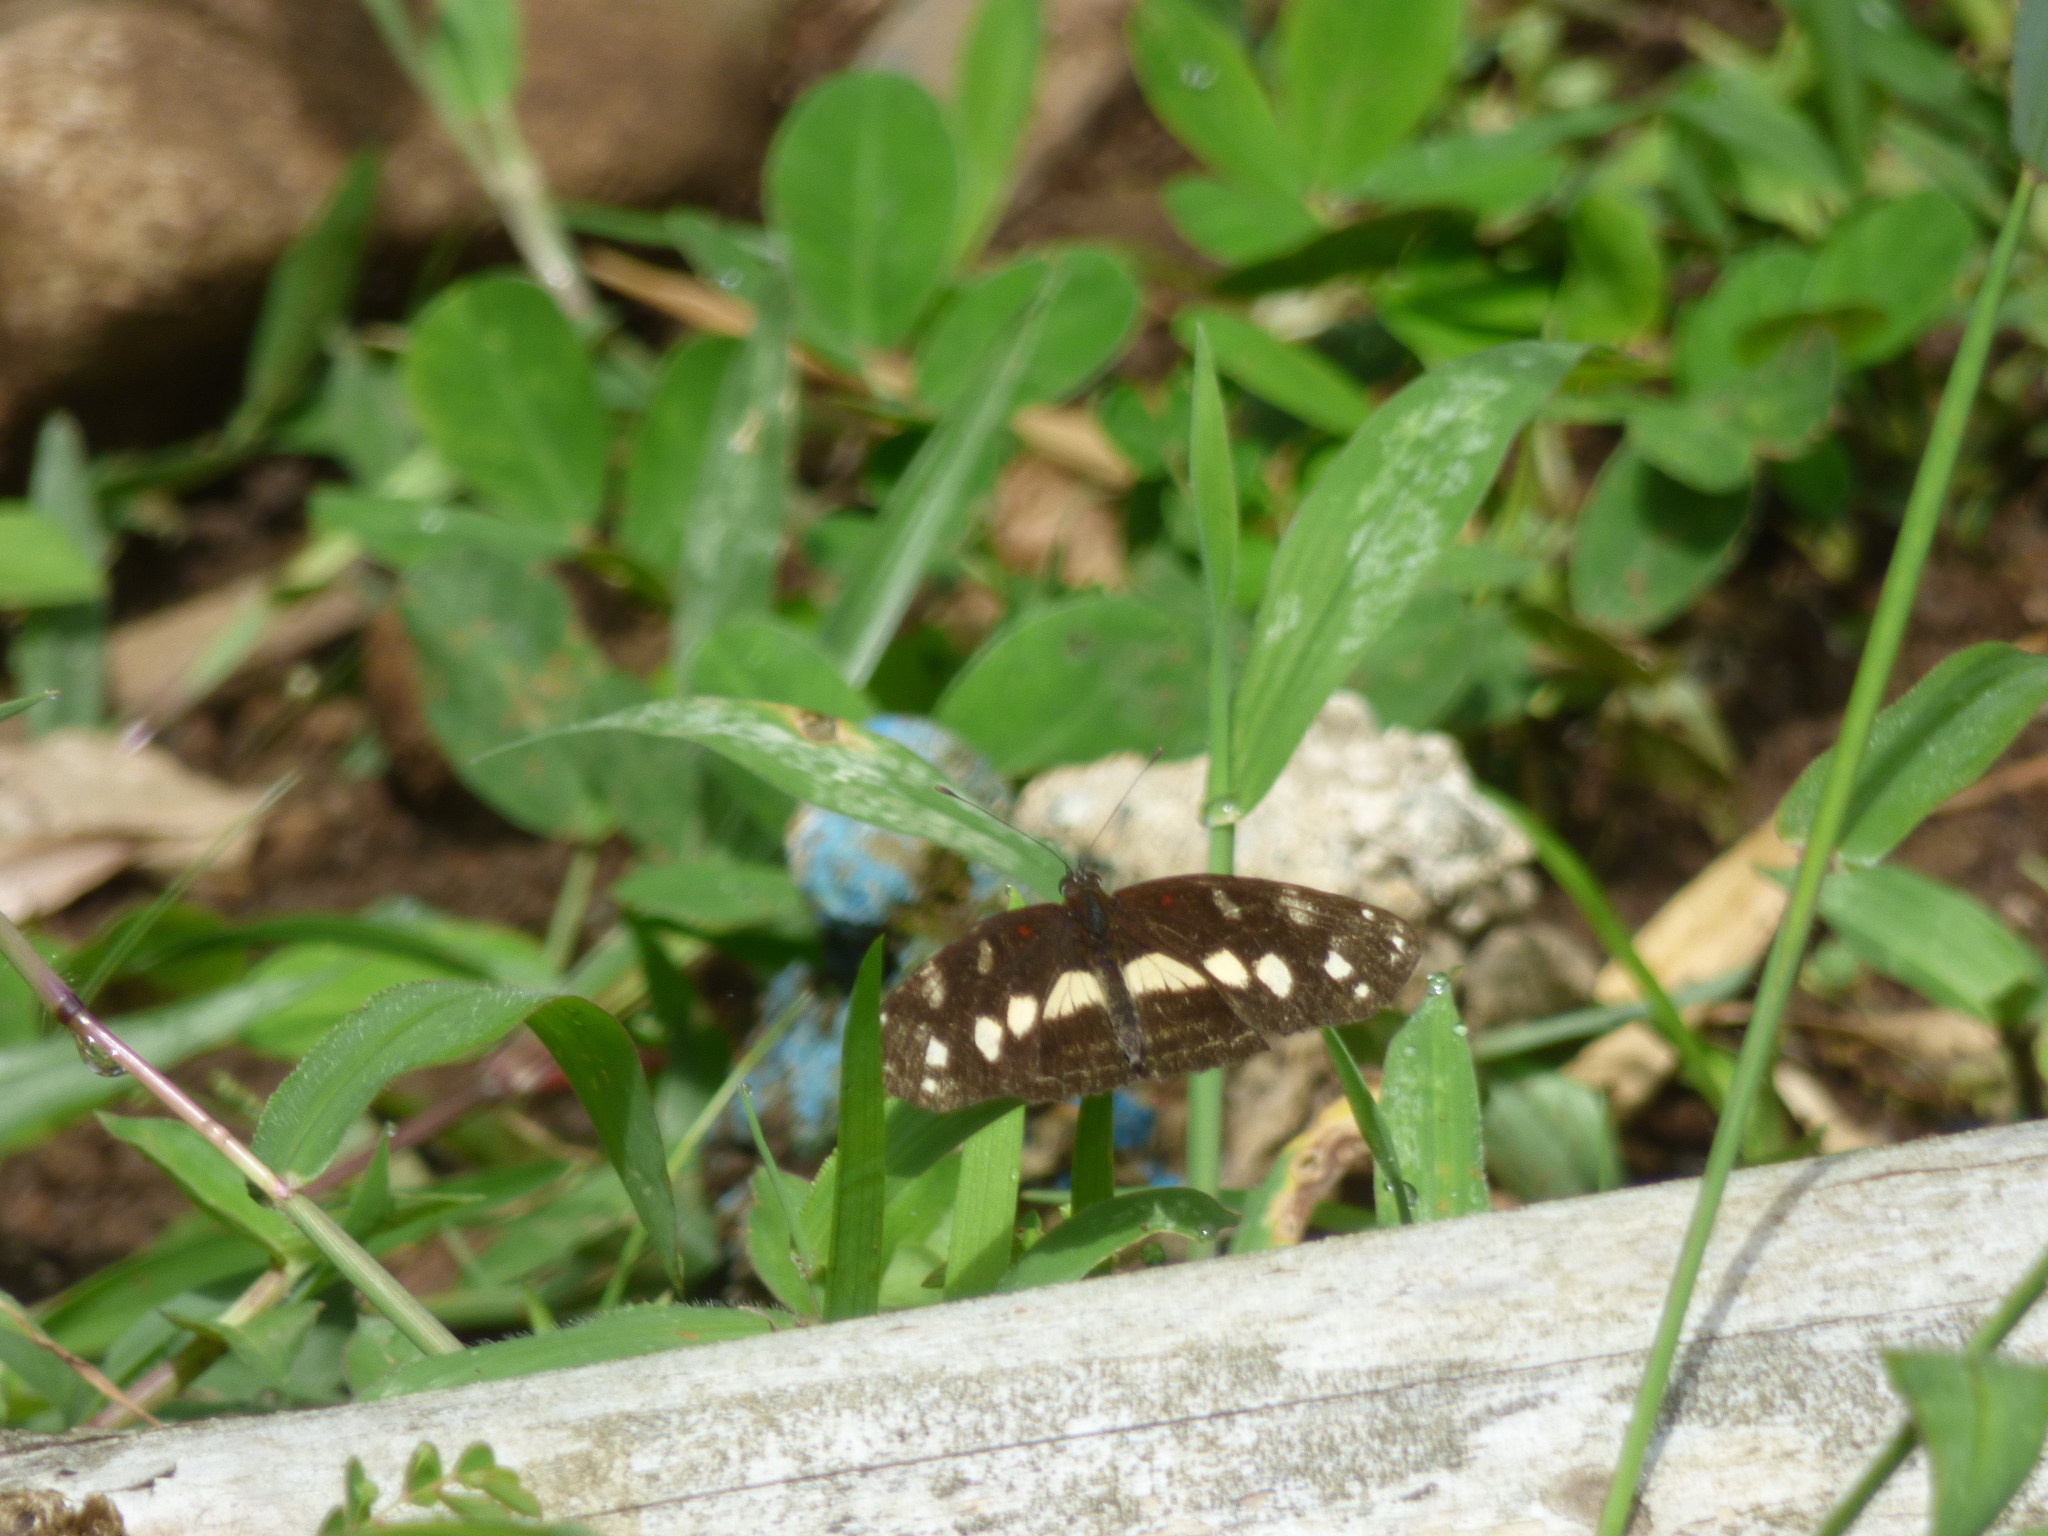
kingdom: Animalia
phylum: Arthropoda
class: Insecta
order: Lepidoptera
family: Nymphalidae
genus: Eresia
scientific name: Eresia polina
